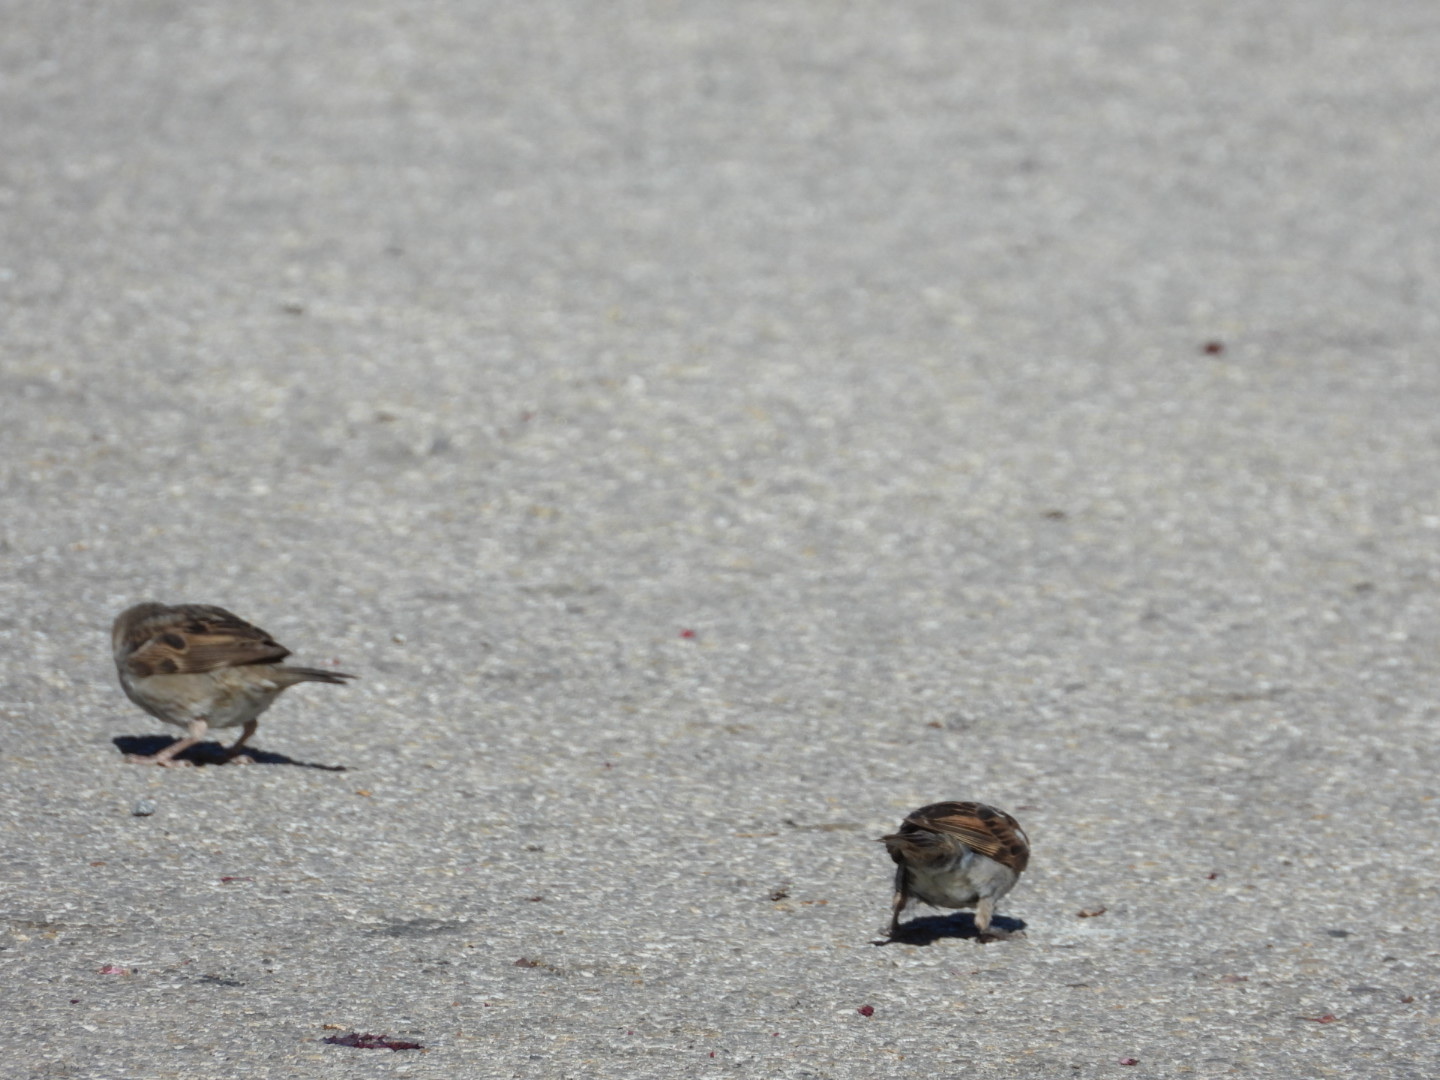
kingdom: Animalia
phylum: Chordata
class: Aves
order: Passeriformes
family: Passeridae
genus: Passer
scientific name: Passer domesticus
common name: House sparrow
